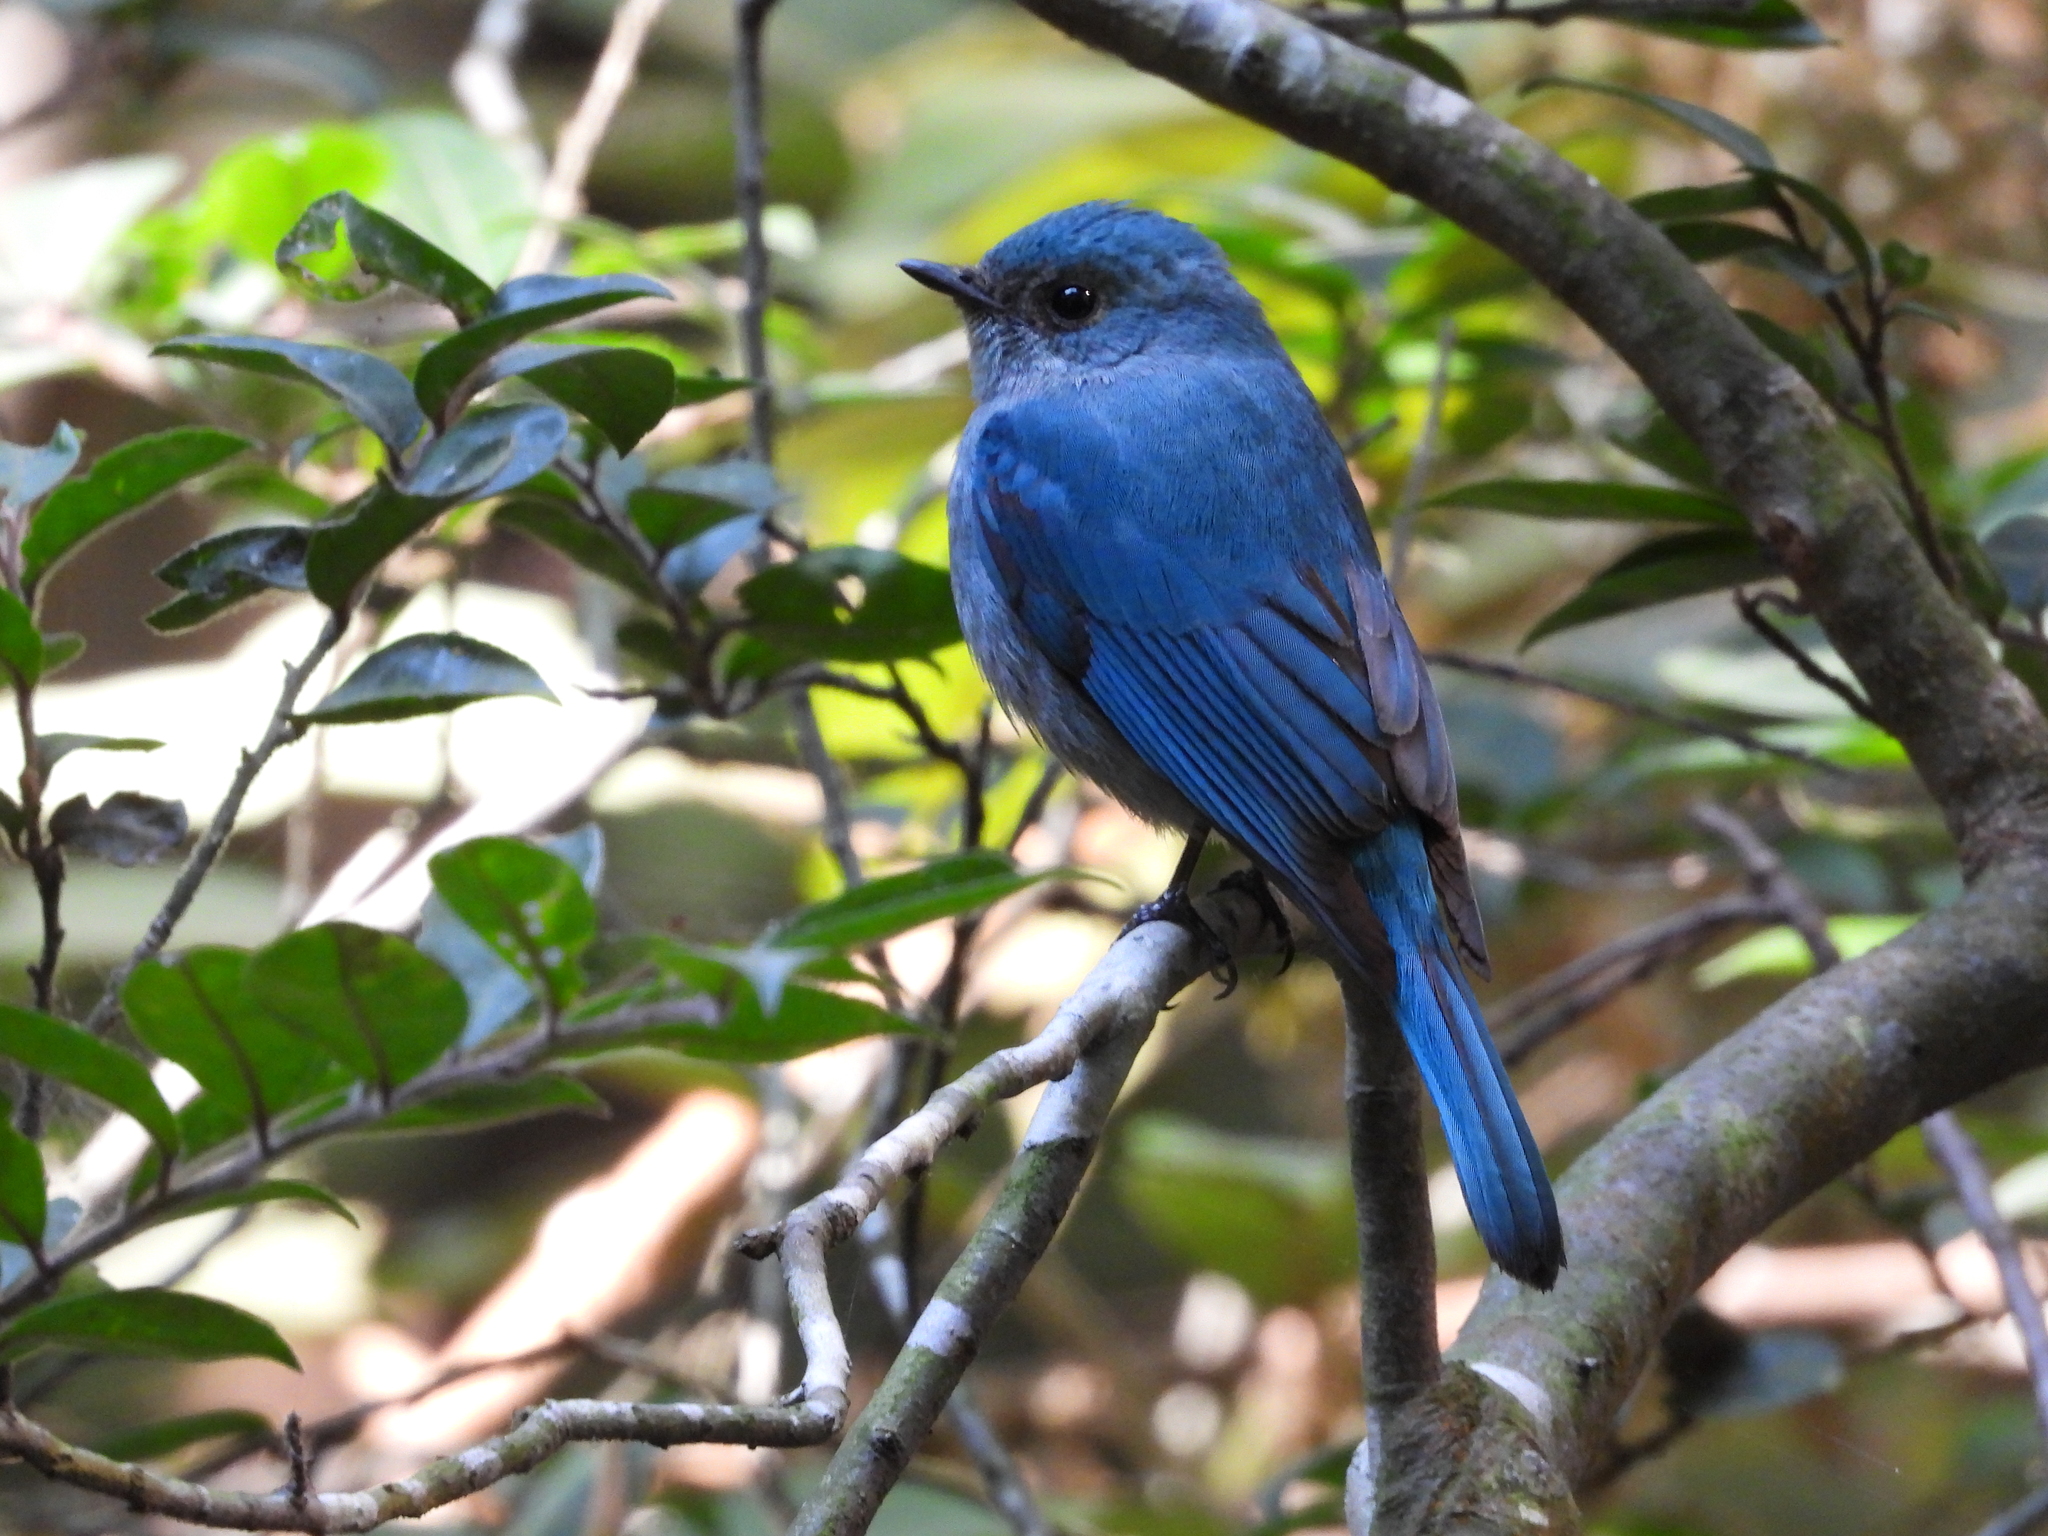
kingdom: Animalia
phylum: Chordata
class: Aves
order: Passeriformes
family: Muscicapidae
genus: Eumyias
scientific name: Eumyias thalassinus
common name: Verditer flycatcher
